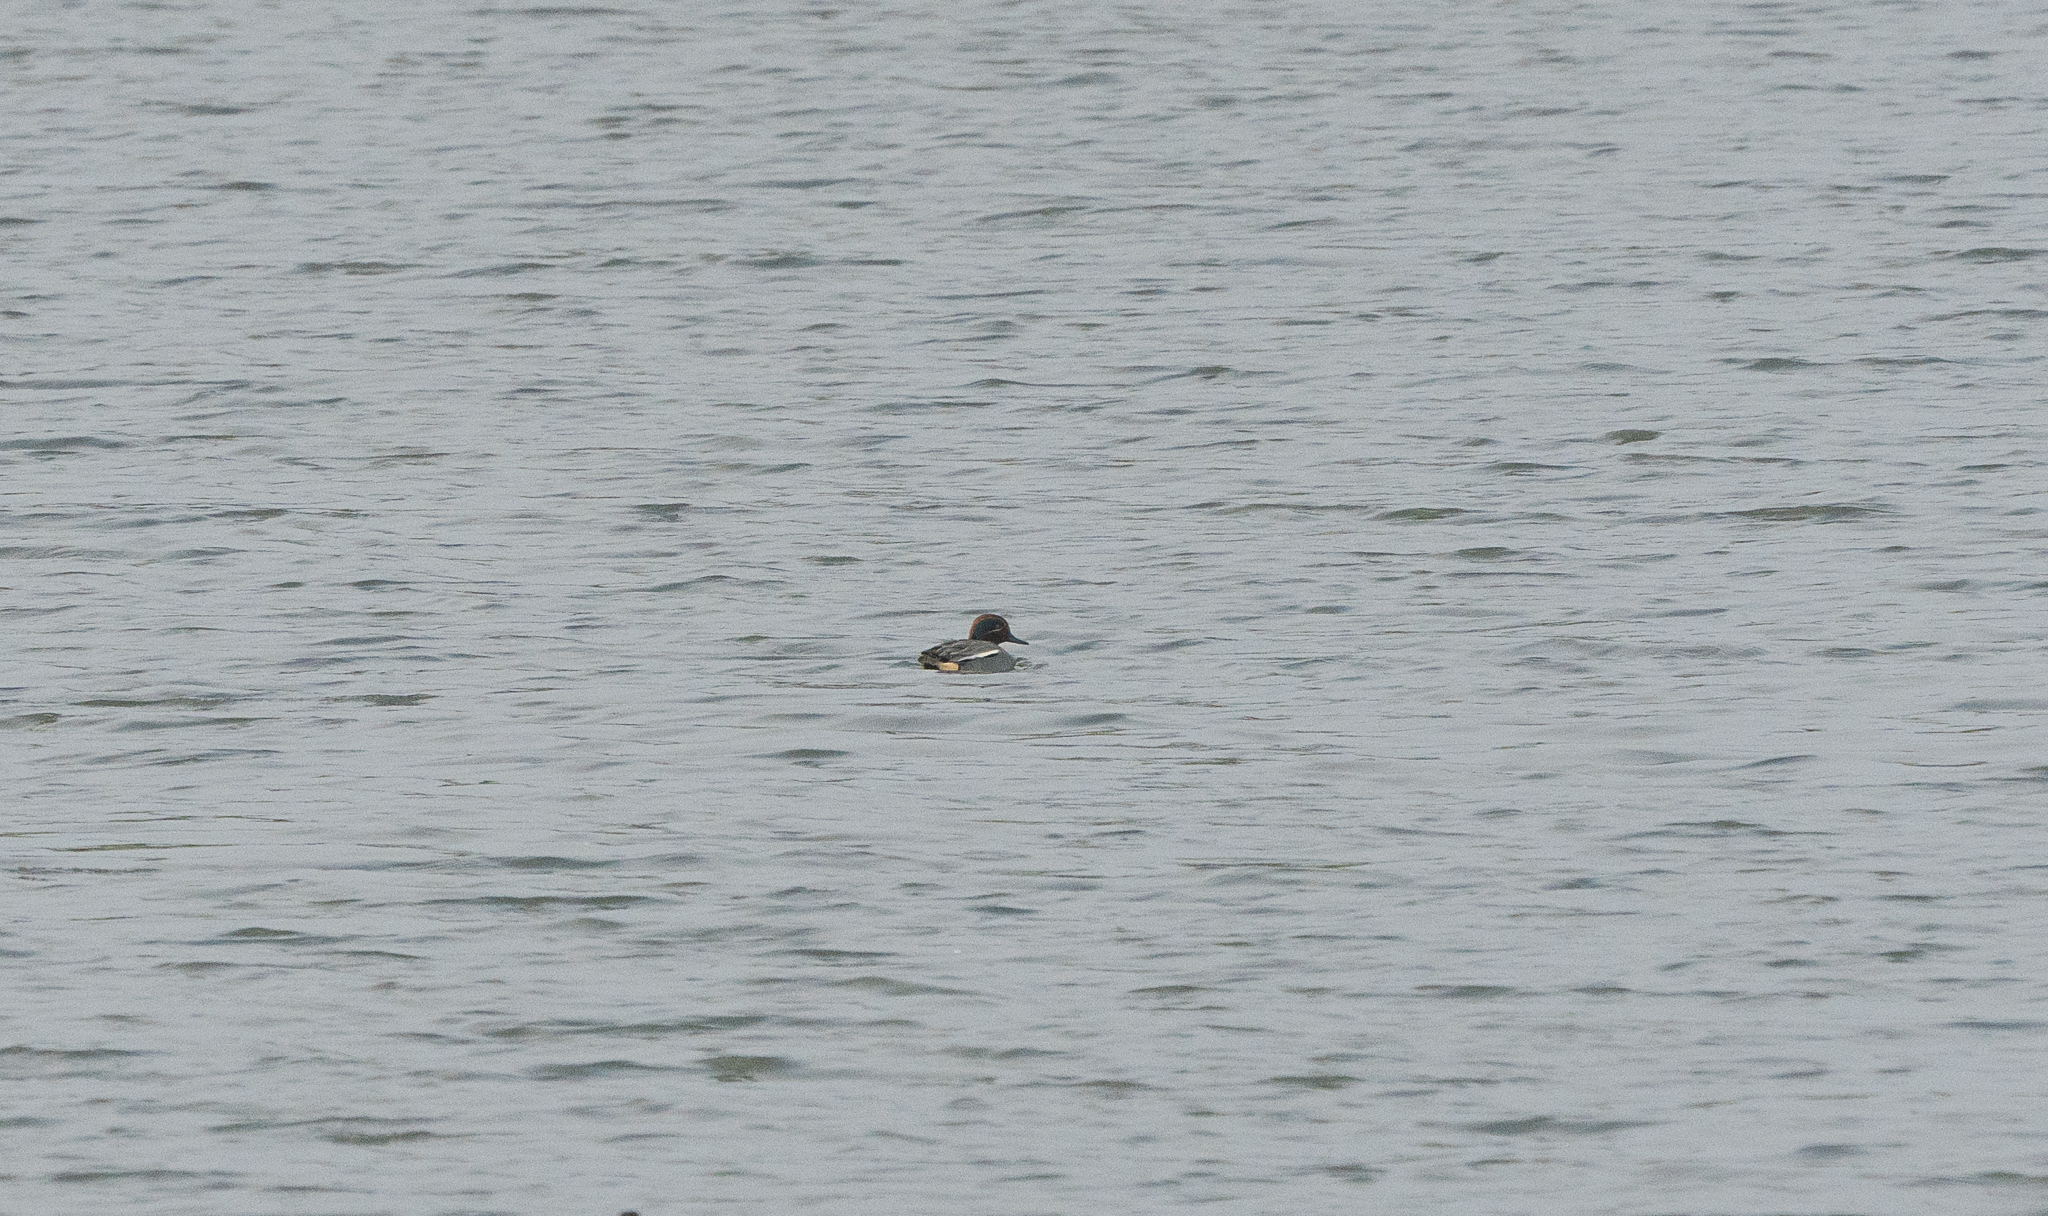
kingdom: Animalia
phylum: Chordata
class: Aves
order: Anseriformes
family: Anatidae
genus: Anas
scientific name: Anas crecca
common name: Eurasian teal
